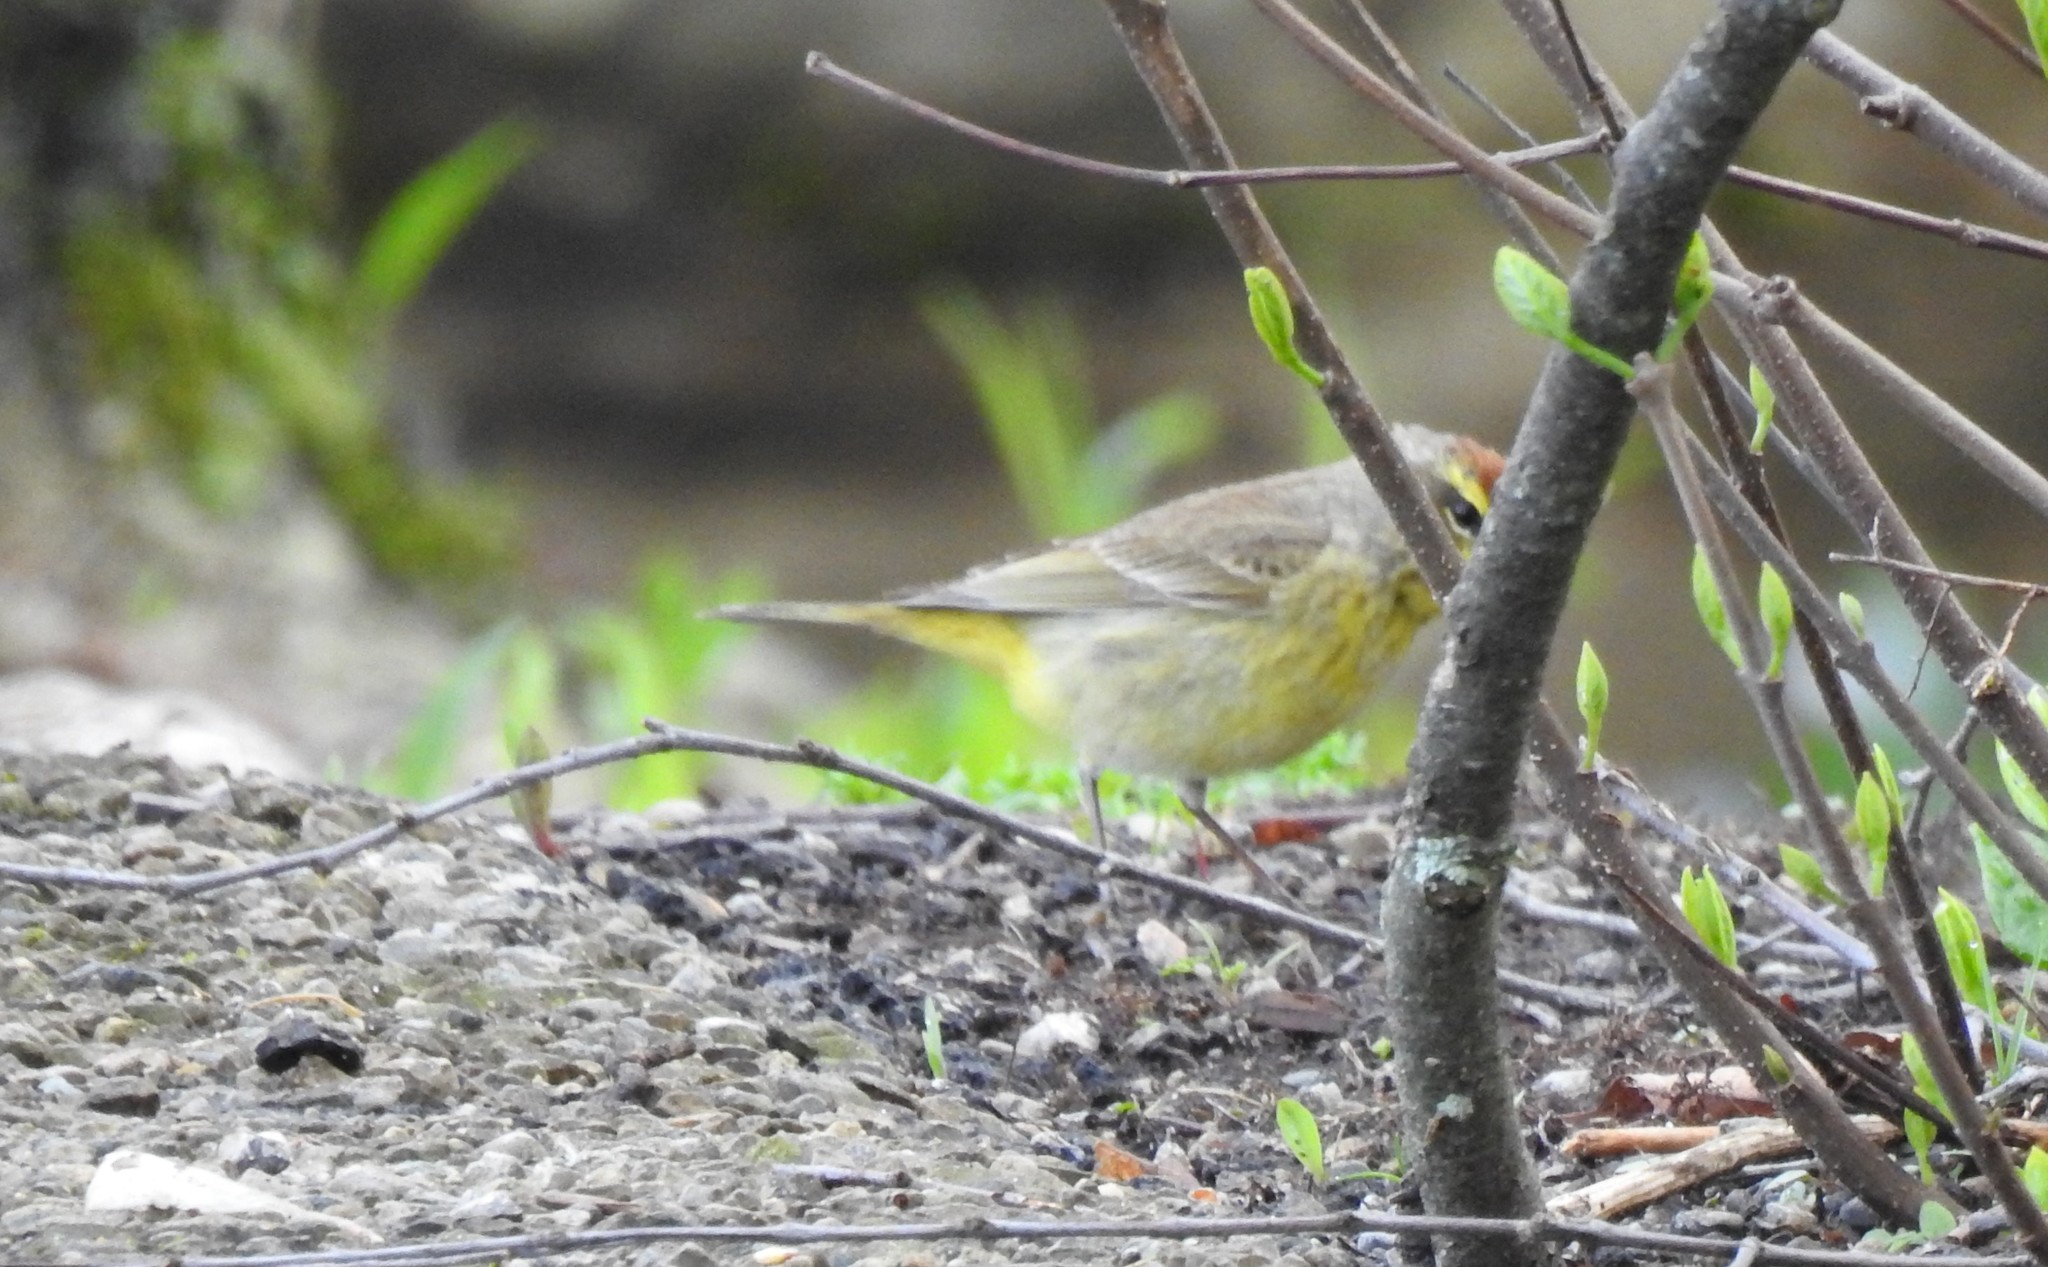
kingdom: Animalia
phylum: Chordata
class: Aves
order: Passeriformes
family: Parulidae
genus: Setophaga
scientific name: Setophaga palmarum
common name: Palm warbler
